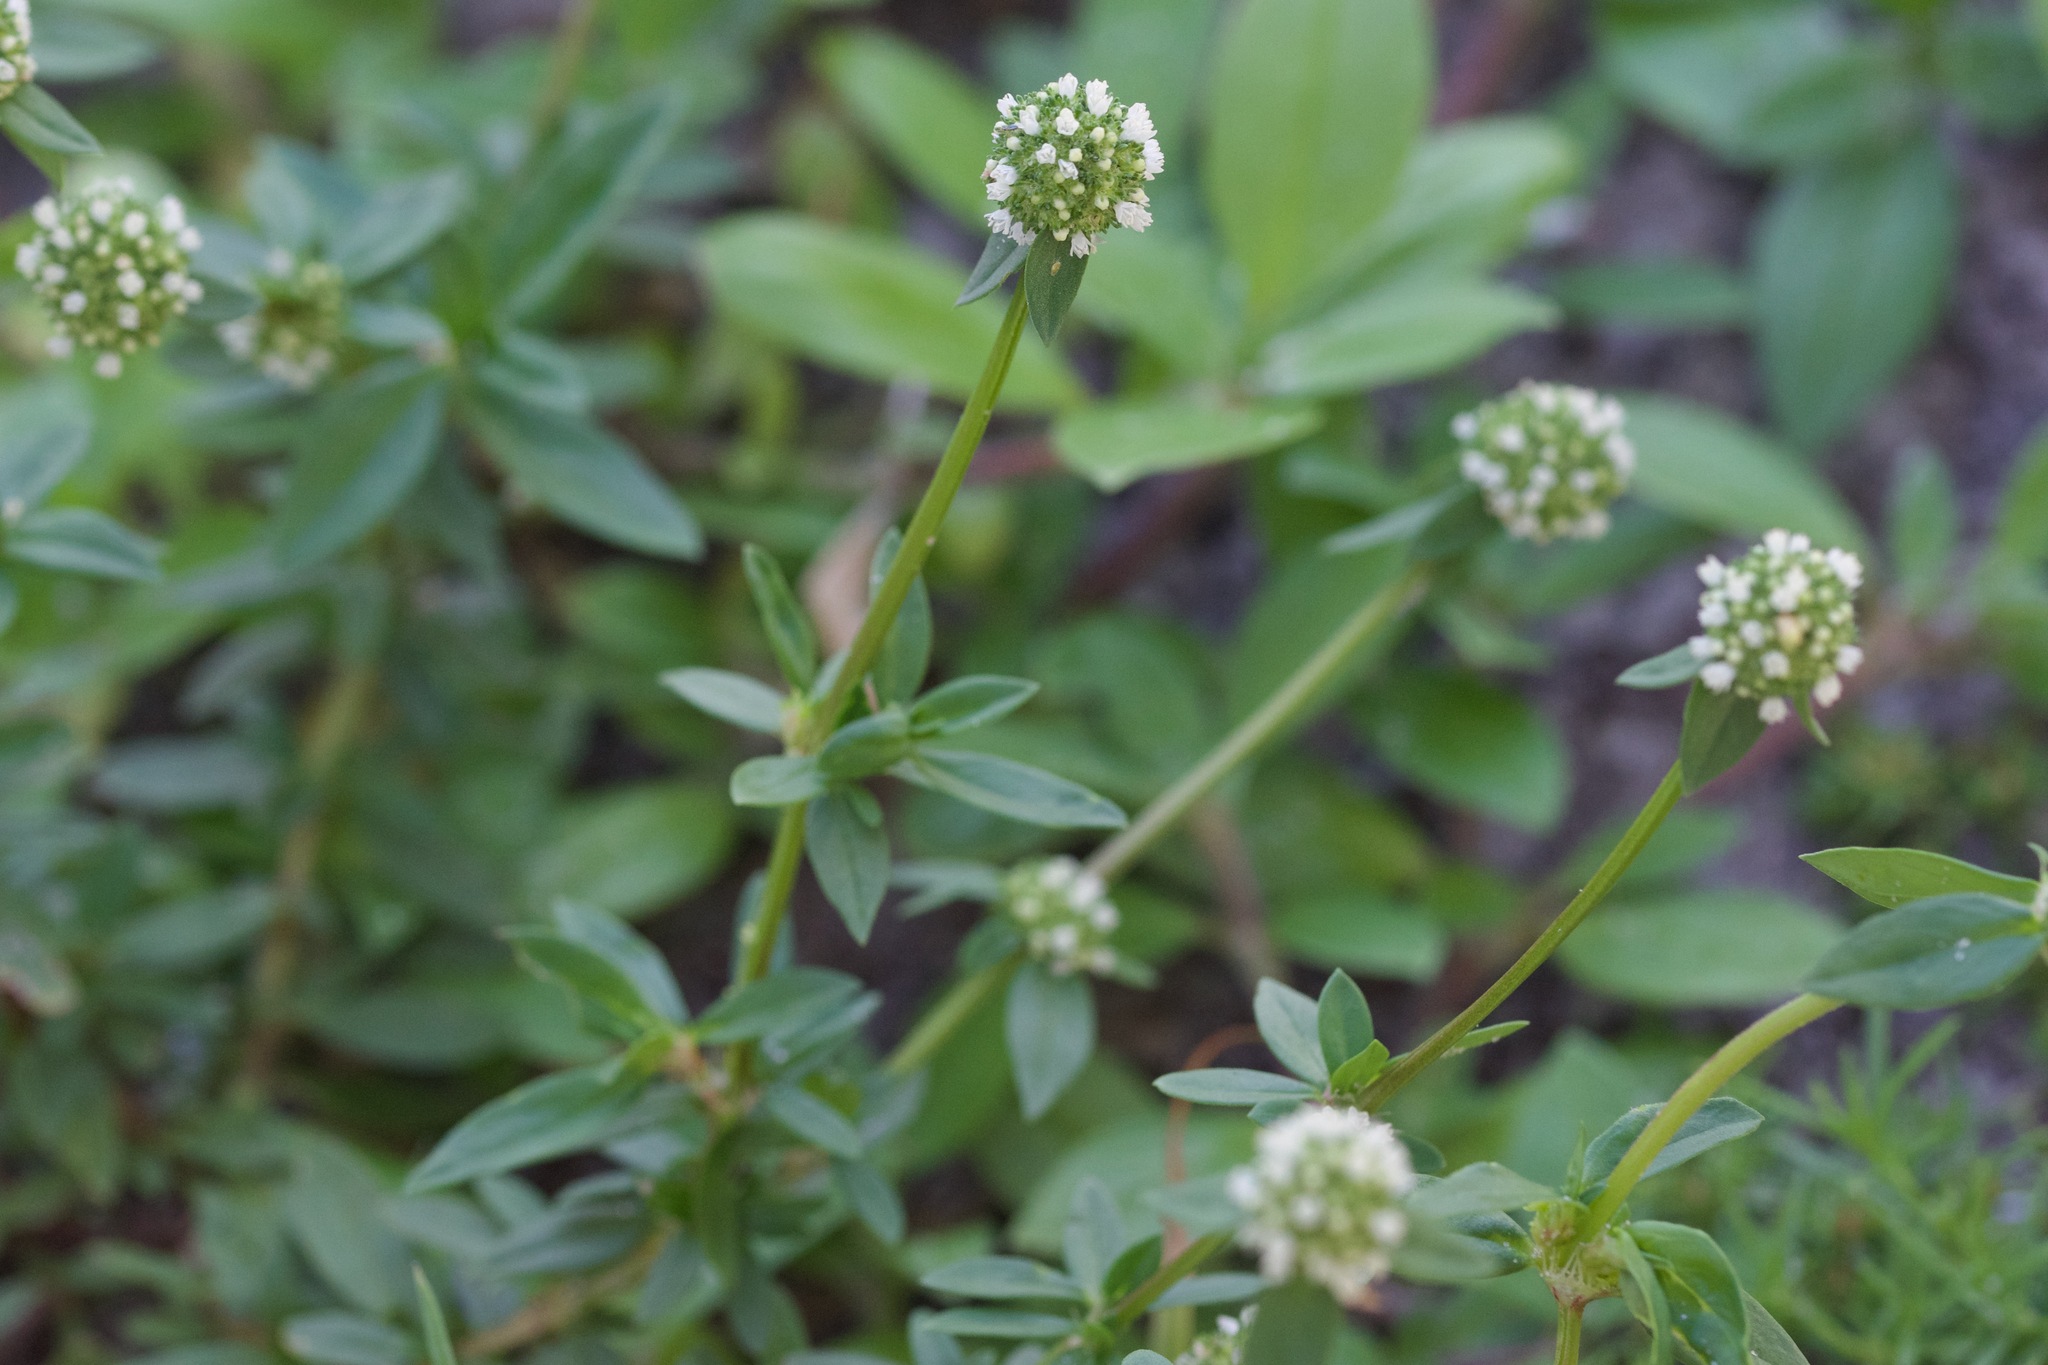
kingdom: Plantae
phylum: Tracheophyta
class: Magnoliopsida
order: Gentianales
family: Rubiaceae
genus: Spermacoce
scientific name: Spermacoce verticillata
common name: Shrubby false buttonweed
